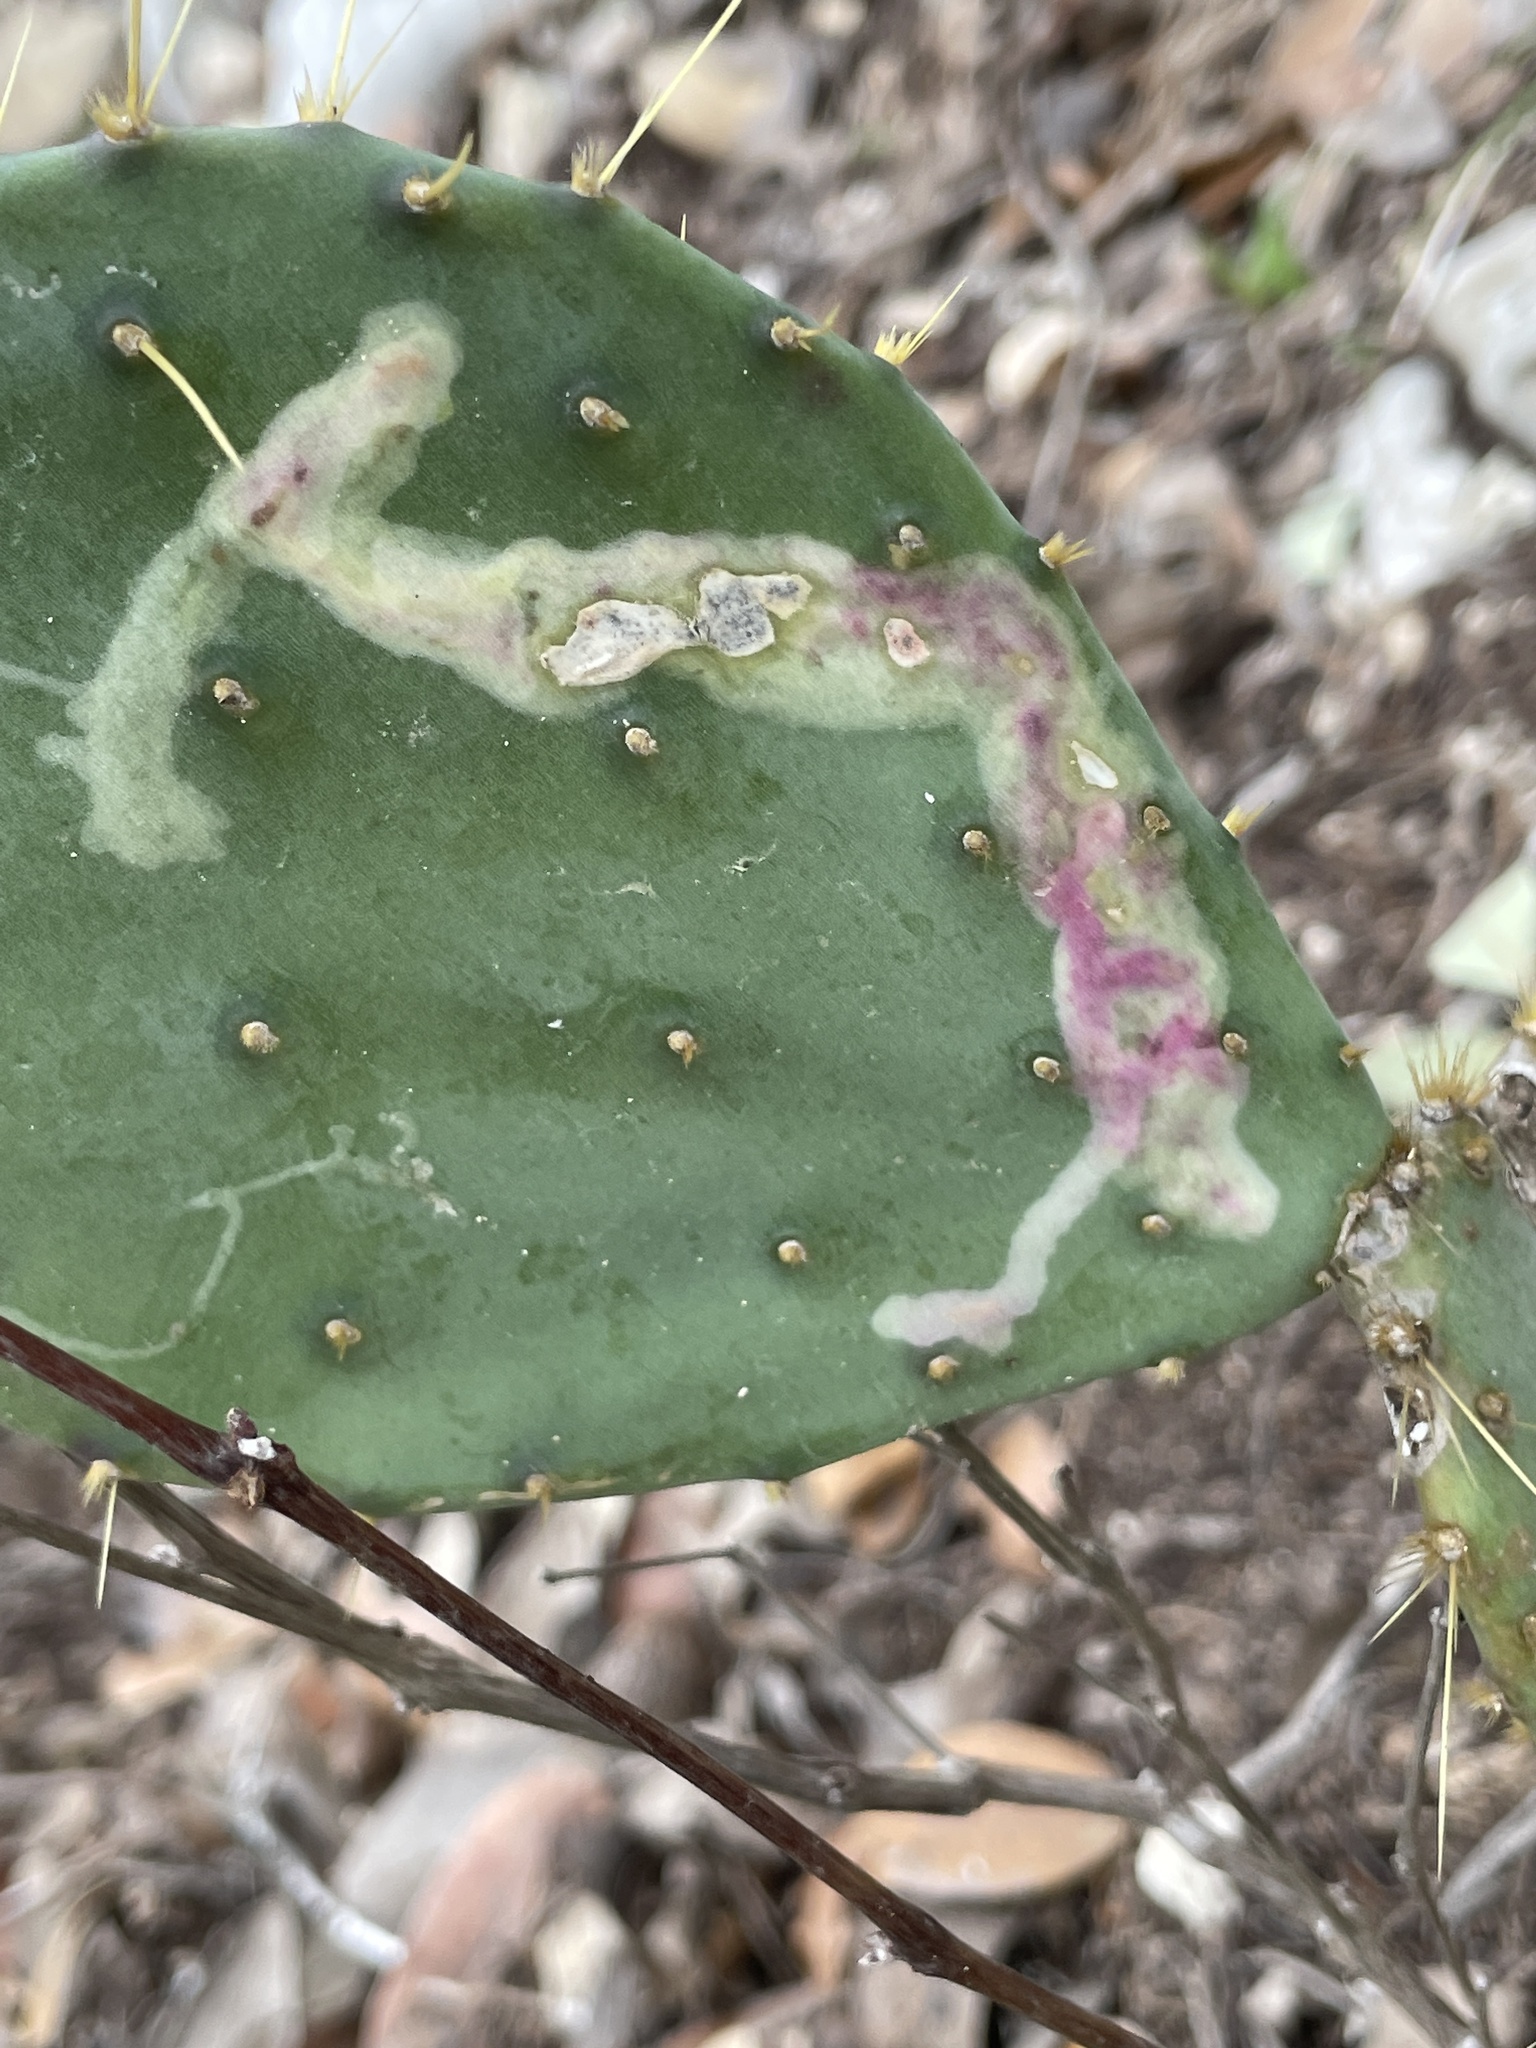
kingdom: Animalia
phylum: Arthropoda
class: Insecta
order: Lepidoptera
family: Gracillariidae
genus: Marmara
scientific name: Marmara opuntiella
